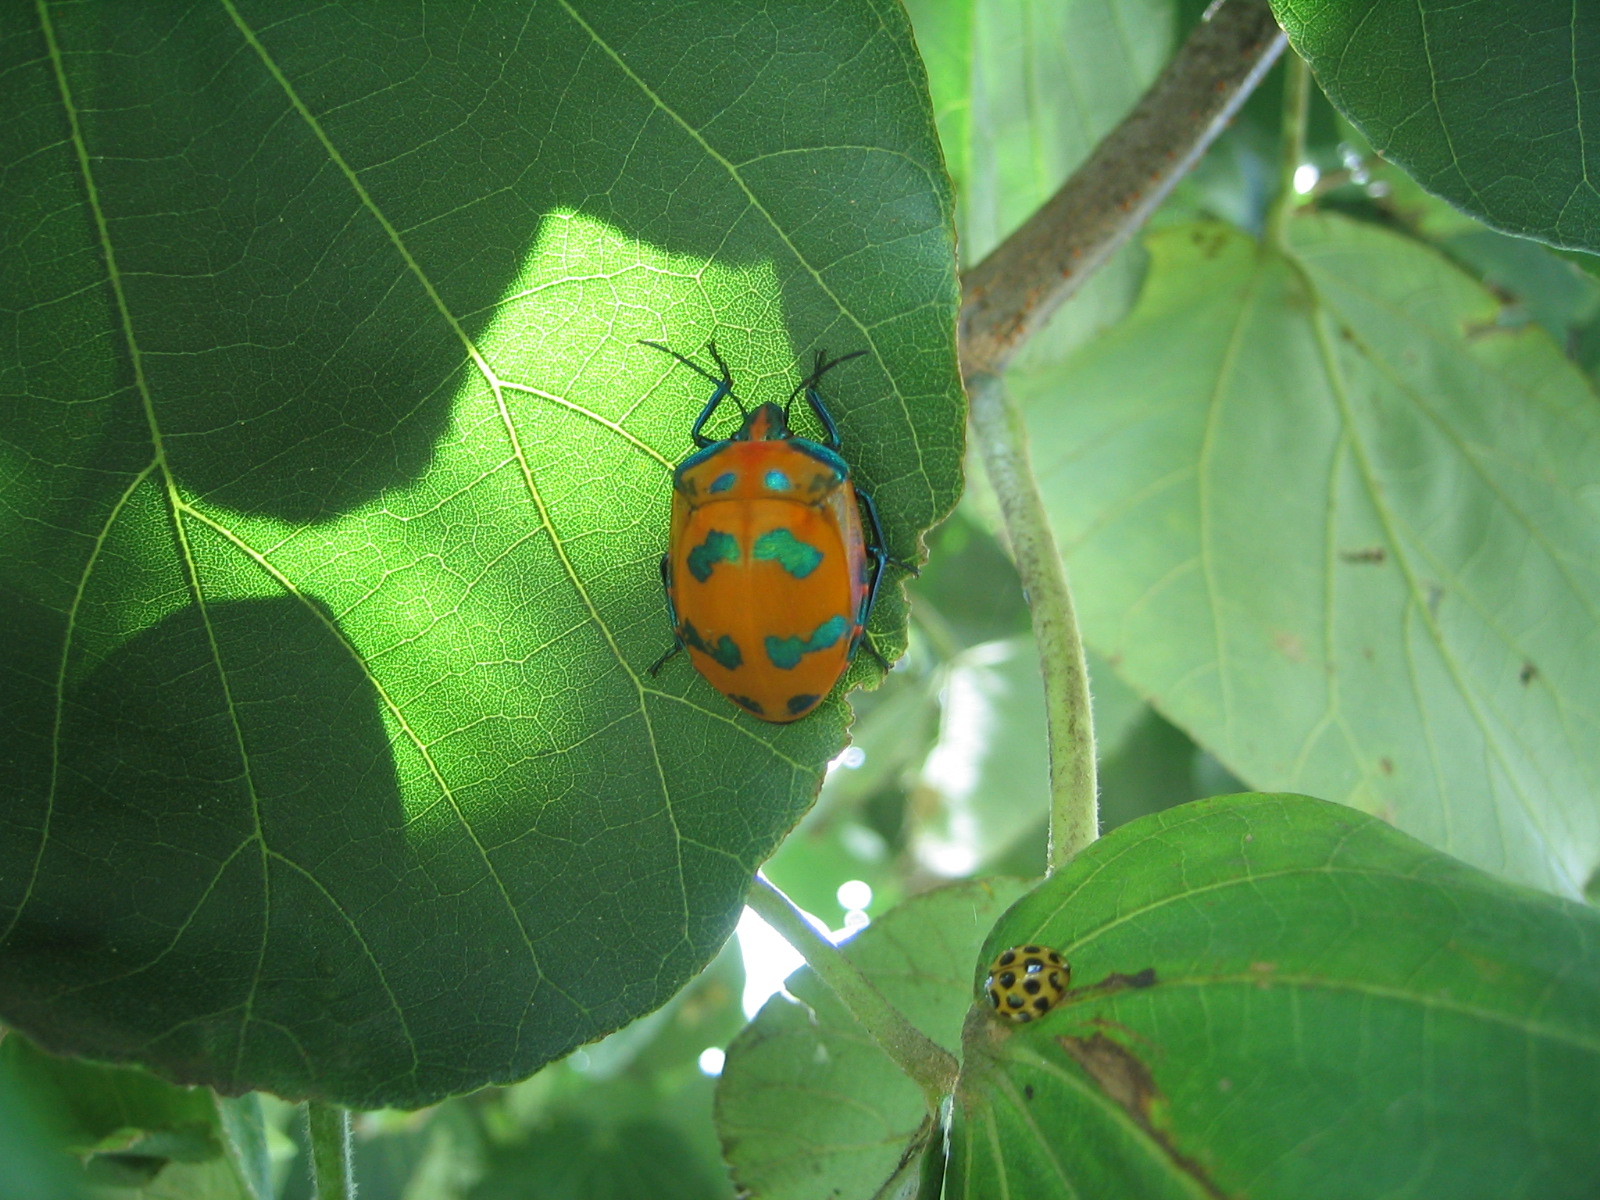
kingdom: Animalia
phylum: Arthropoda
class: Insecta
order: Hemiptera
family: Scutelleridae
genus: Tectocoris
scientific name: Tectocoris diophthalmus
